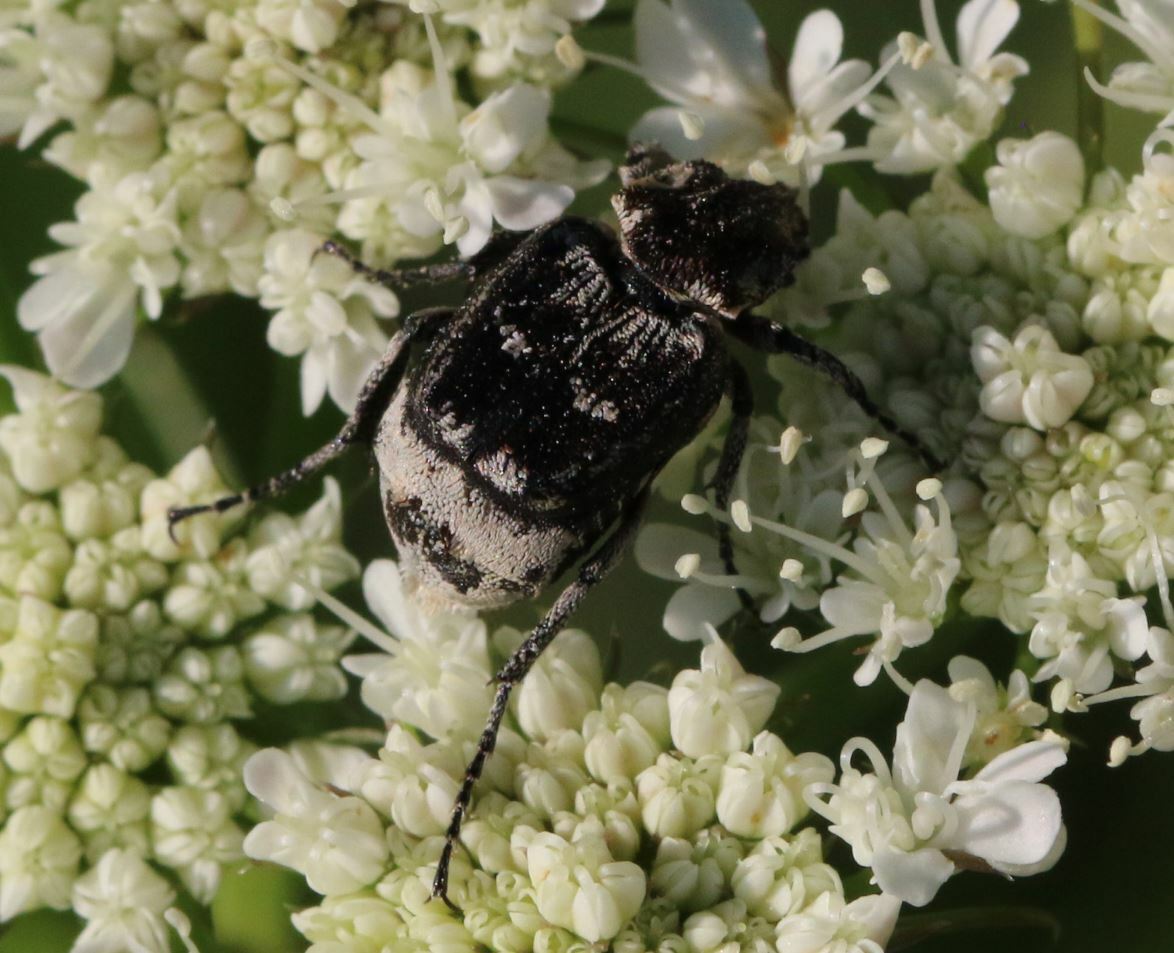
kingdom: Animalia
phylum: Arthropoda
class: Insecta
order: Coleoptera
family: Scarabaeidae
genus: Valgus
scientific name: Valgus hemipterus
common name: Bug flower chafer
